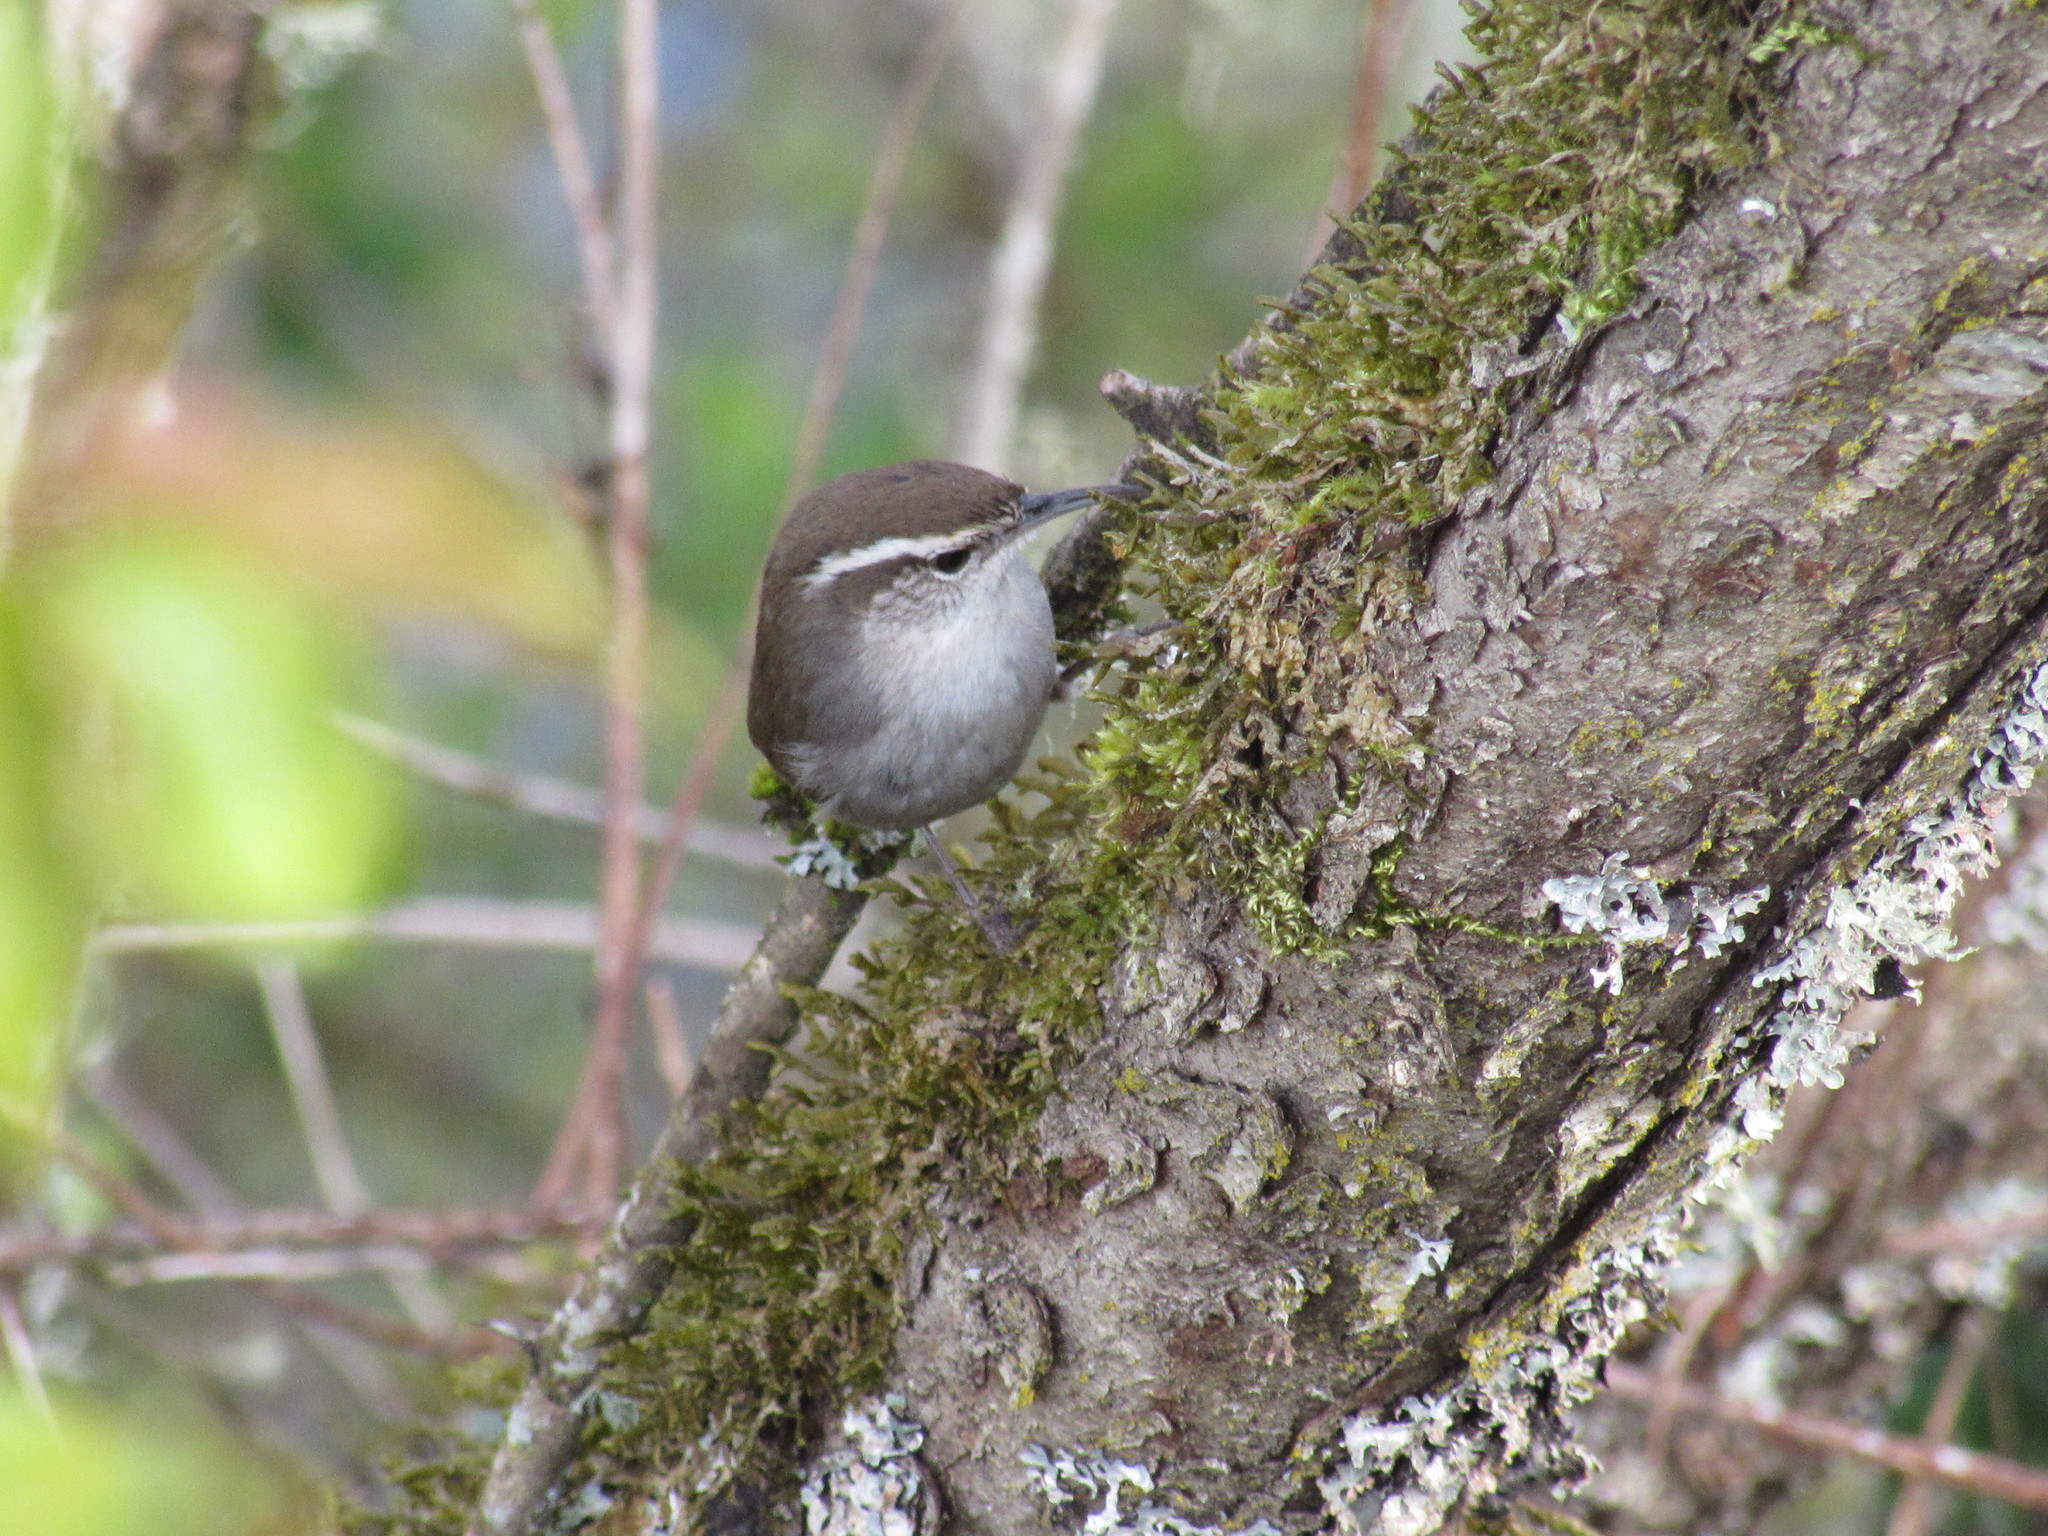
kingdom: Animalia
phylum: Chordata
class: Aves
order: Passeriformes
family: Troglodytidae
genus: Thryomanes
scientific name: Thryomanes bewickii
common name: Bewick's wren
